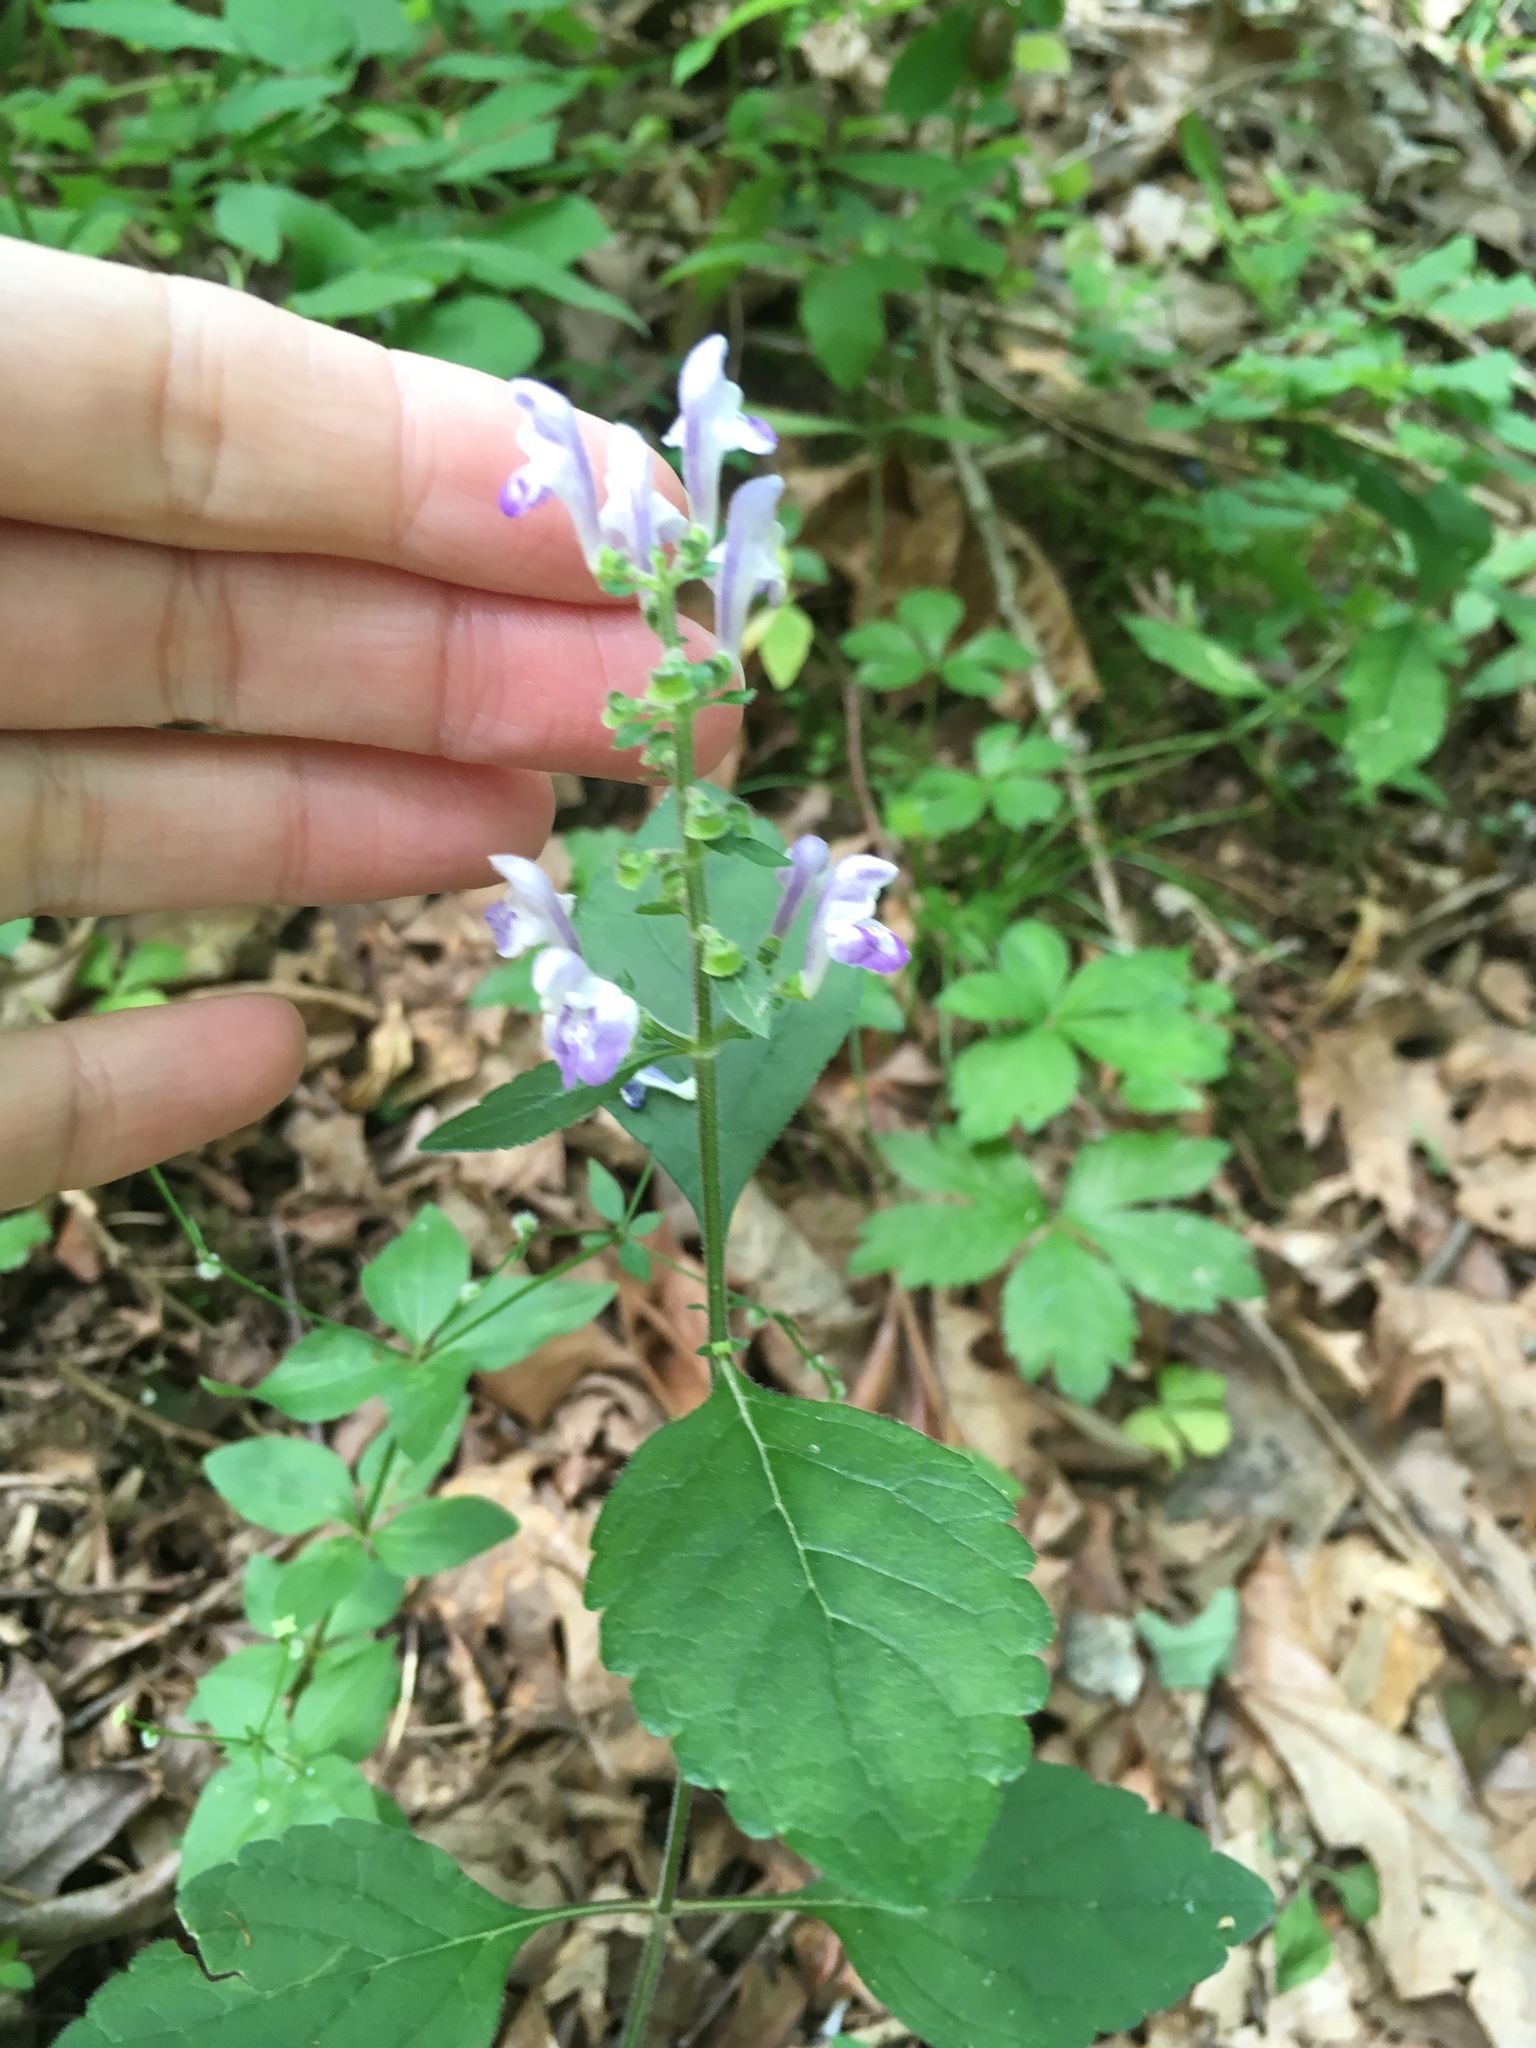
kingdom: Plantae
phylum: Tracheophyta
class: Magnoliopsida
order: Lamiales
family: Lamiaceae
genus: Scutellaria
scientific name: Scutellaria elliptica
